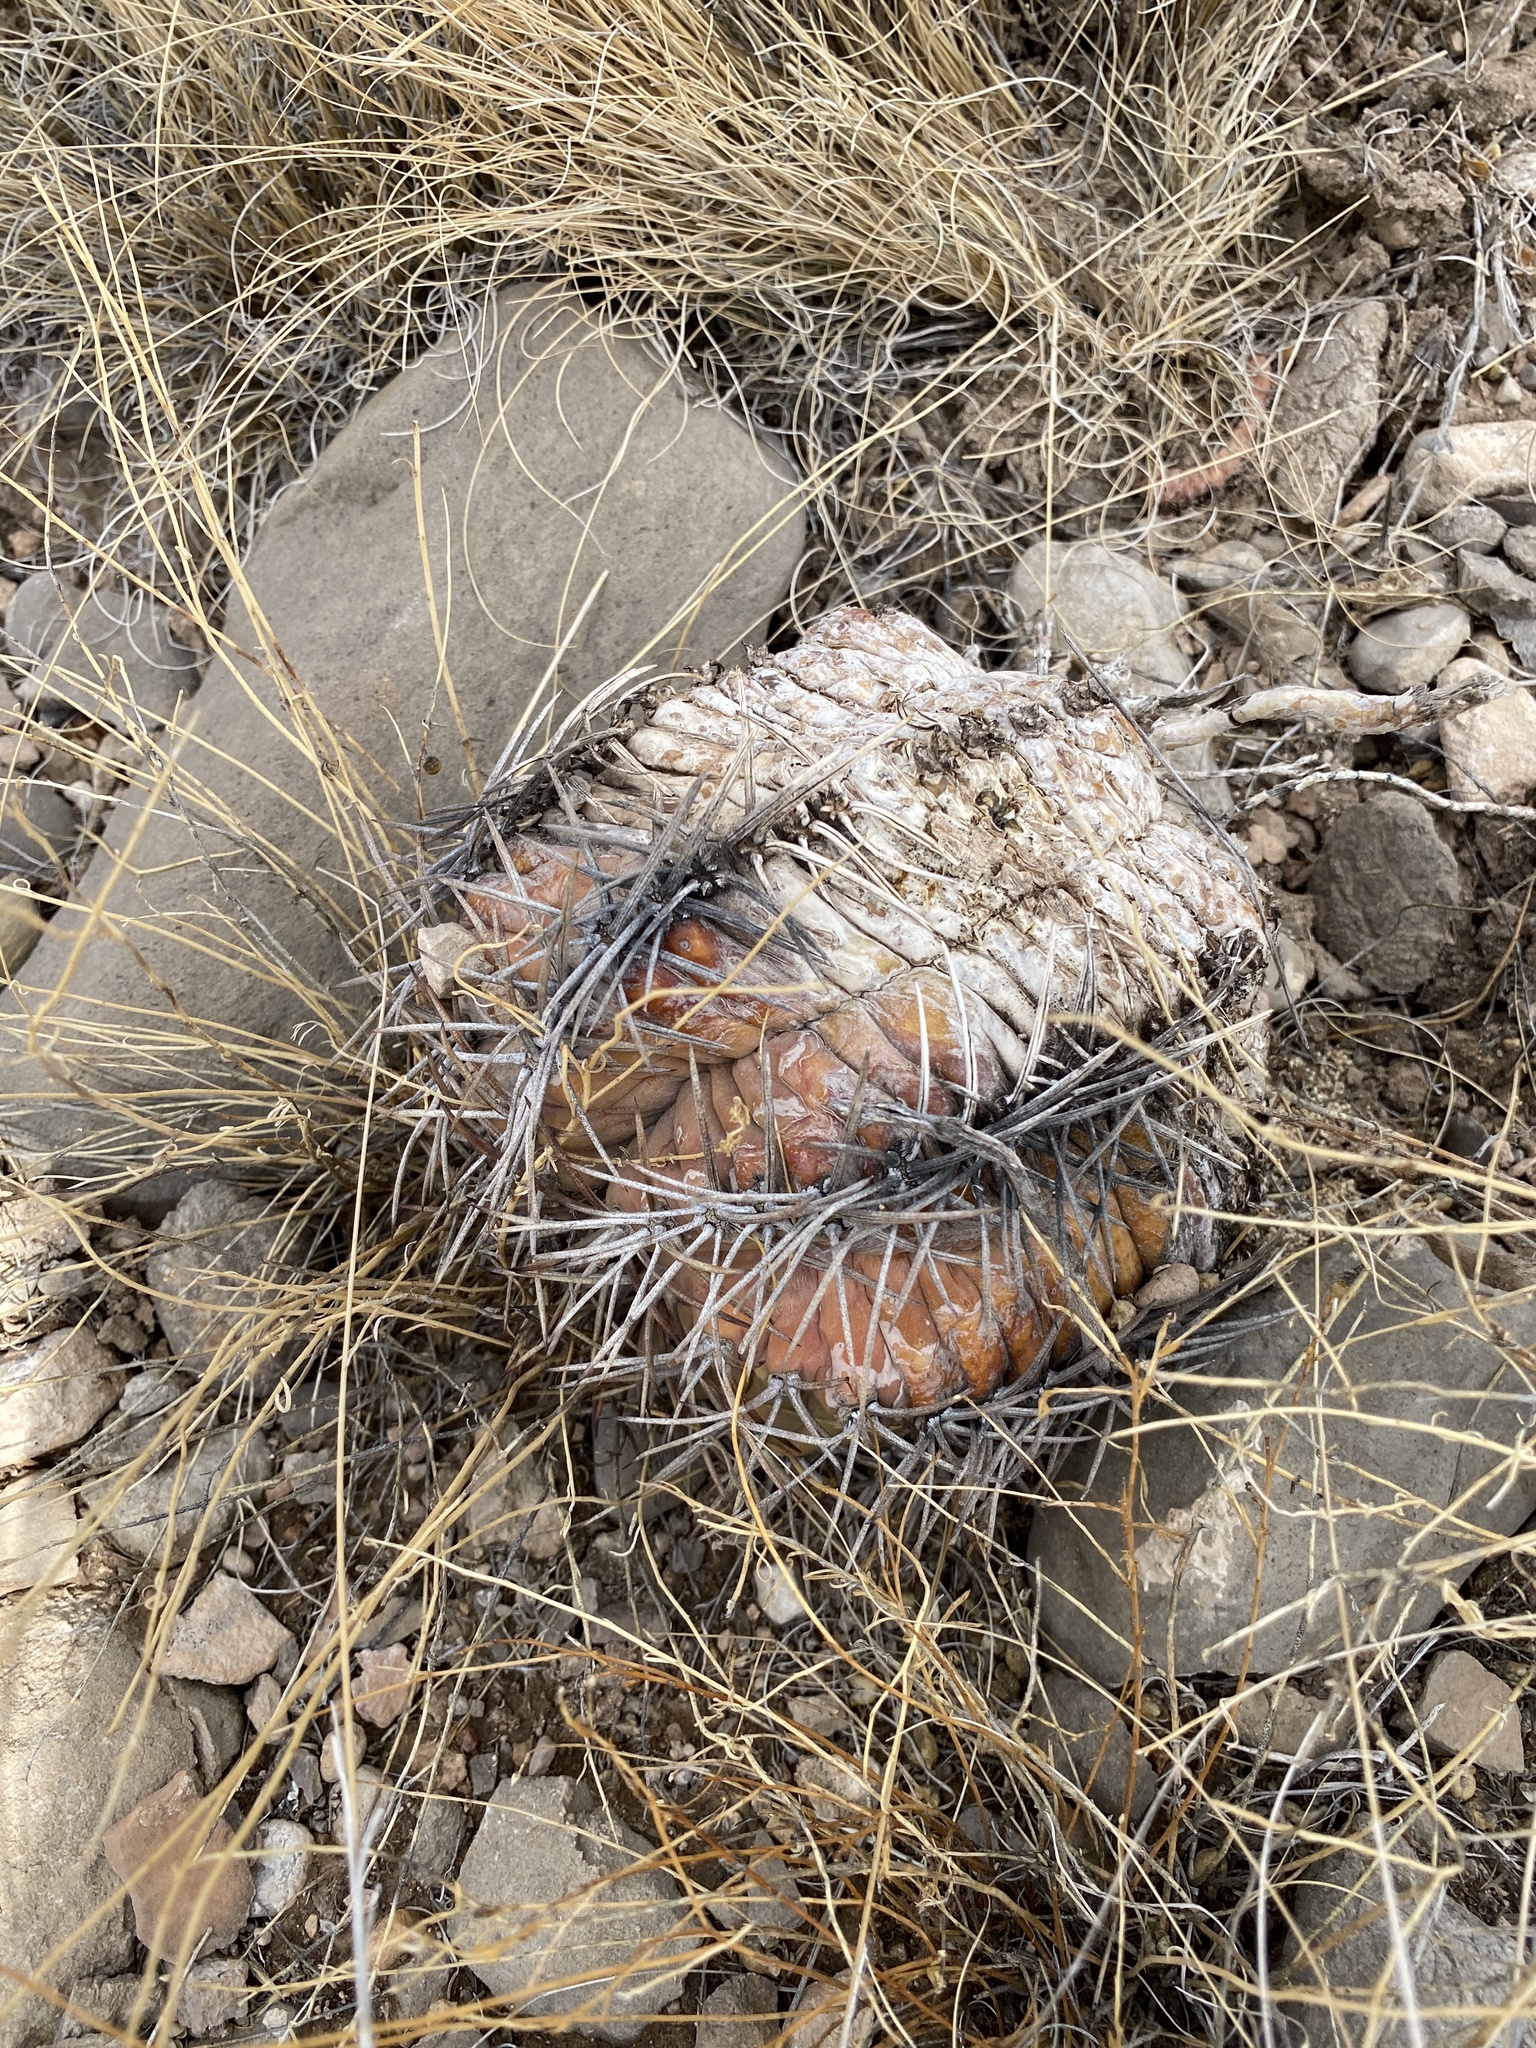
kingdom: Plantae
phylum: Tracheophyta
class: Magnoliopsida
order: Caryophyllales
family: Cactaceae
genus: Echinocactus
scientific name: Echinocactus horizonthalonius
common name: Devilshead
